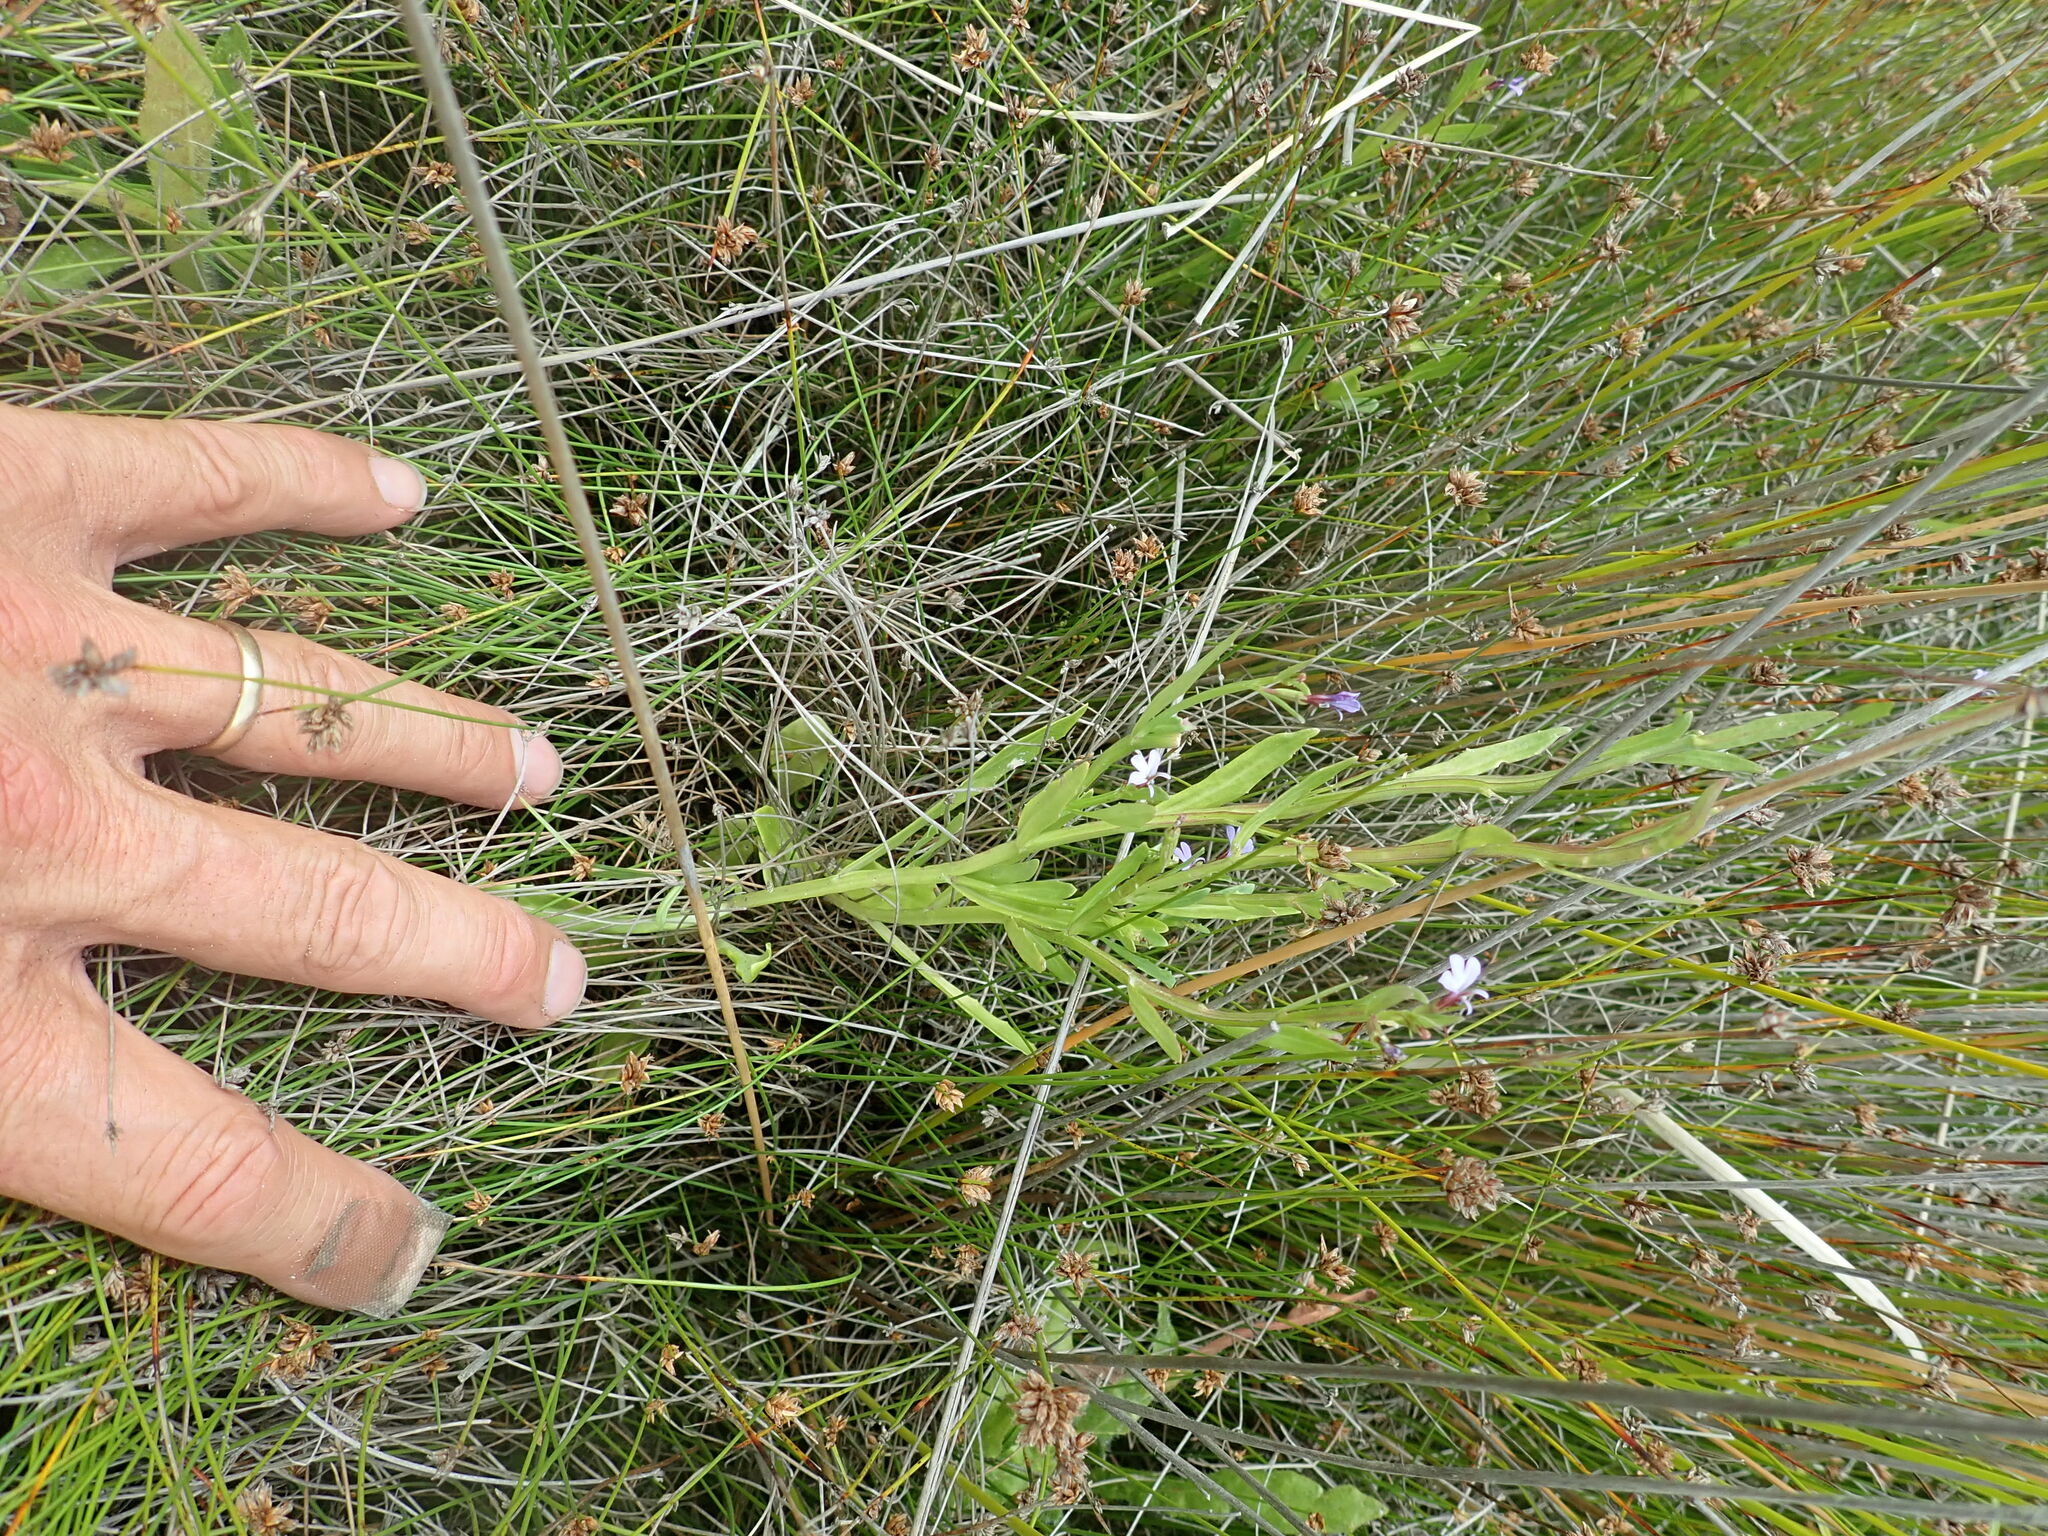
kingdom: Plantae
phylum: Tracheophyta
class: Magnoliopsida
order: Asterales
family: Campanulaceae
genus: Lobelia
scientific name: Lobelia anceps
